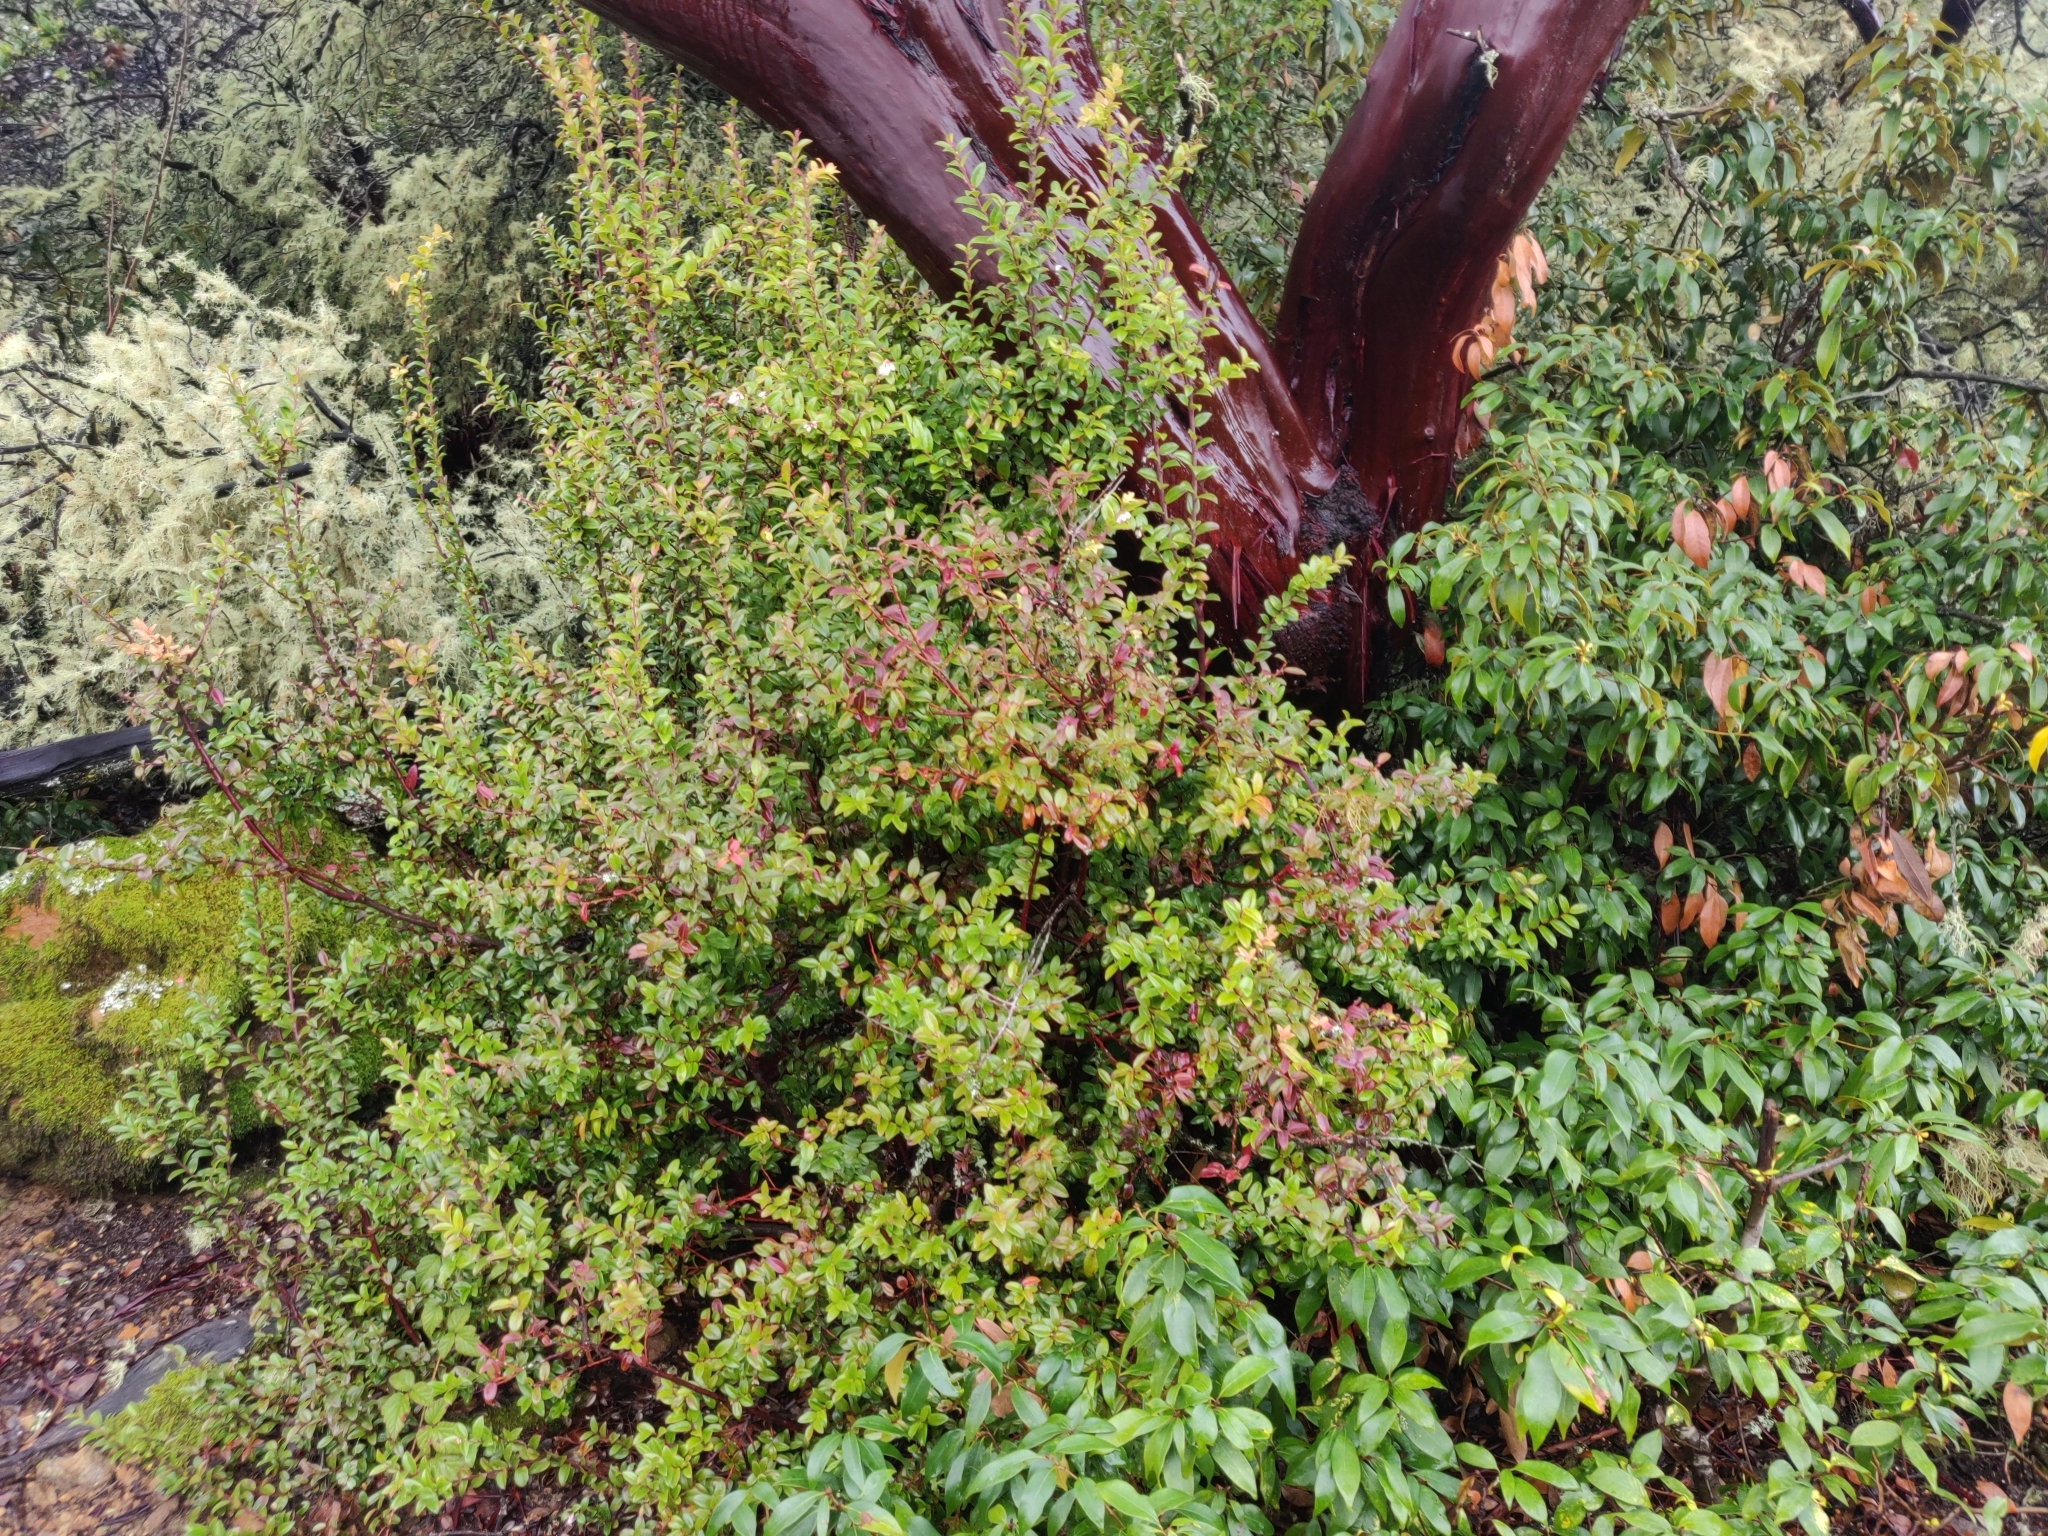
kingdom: Plantae
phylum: Tracheophyta
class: Magnoliopsida
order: Ericales
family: Ericaceae
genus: Arctostaphylos
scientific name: Arctostaphylos montaraensis
